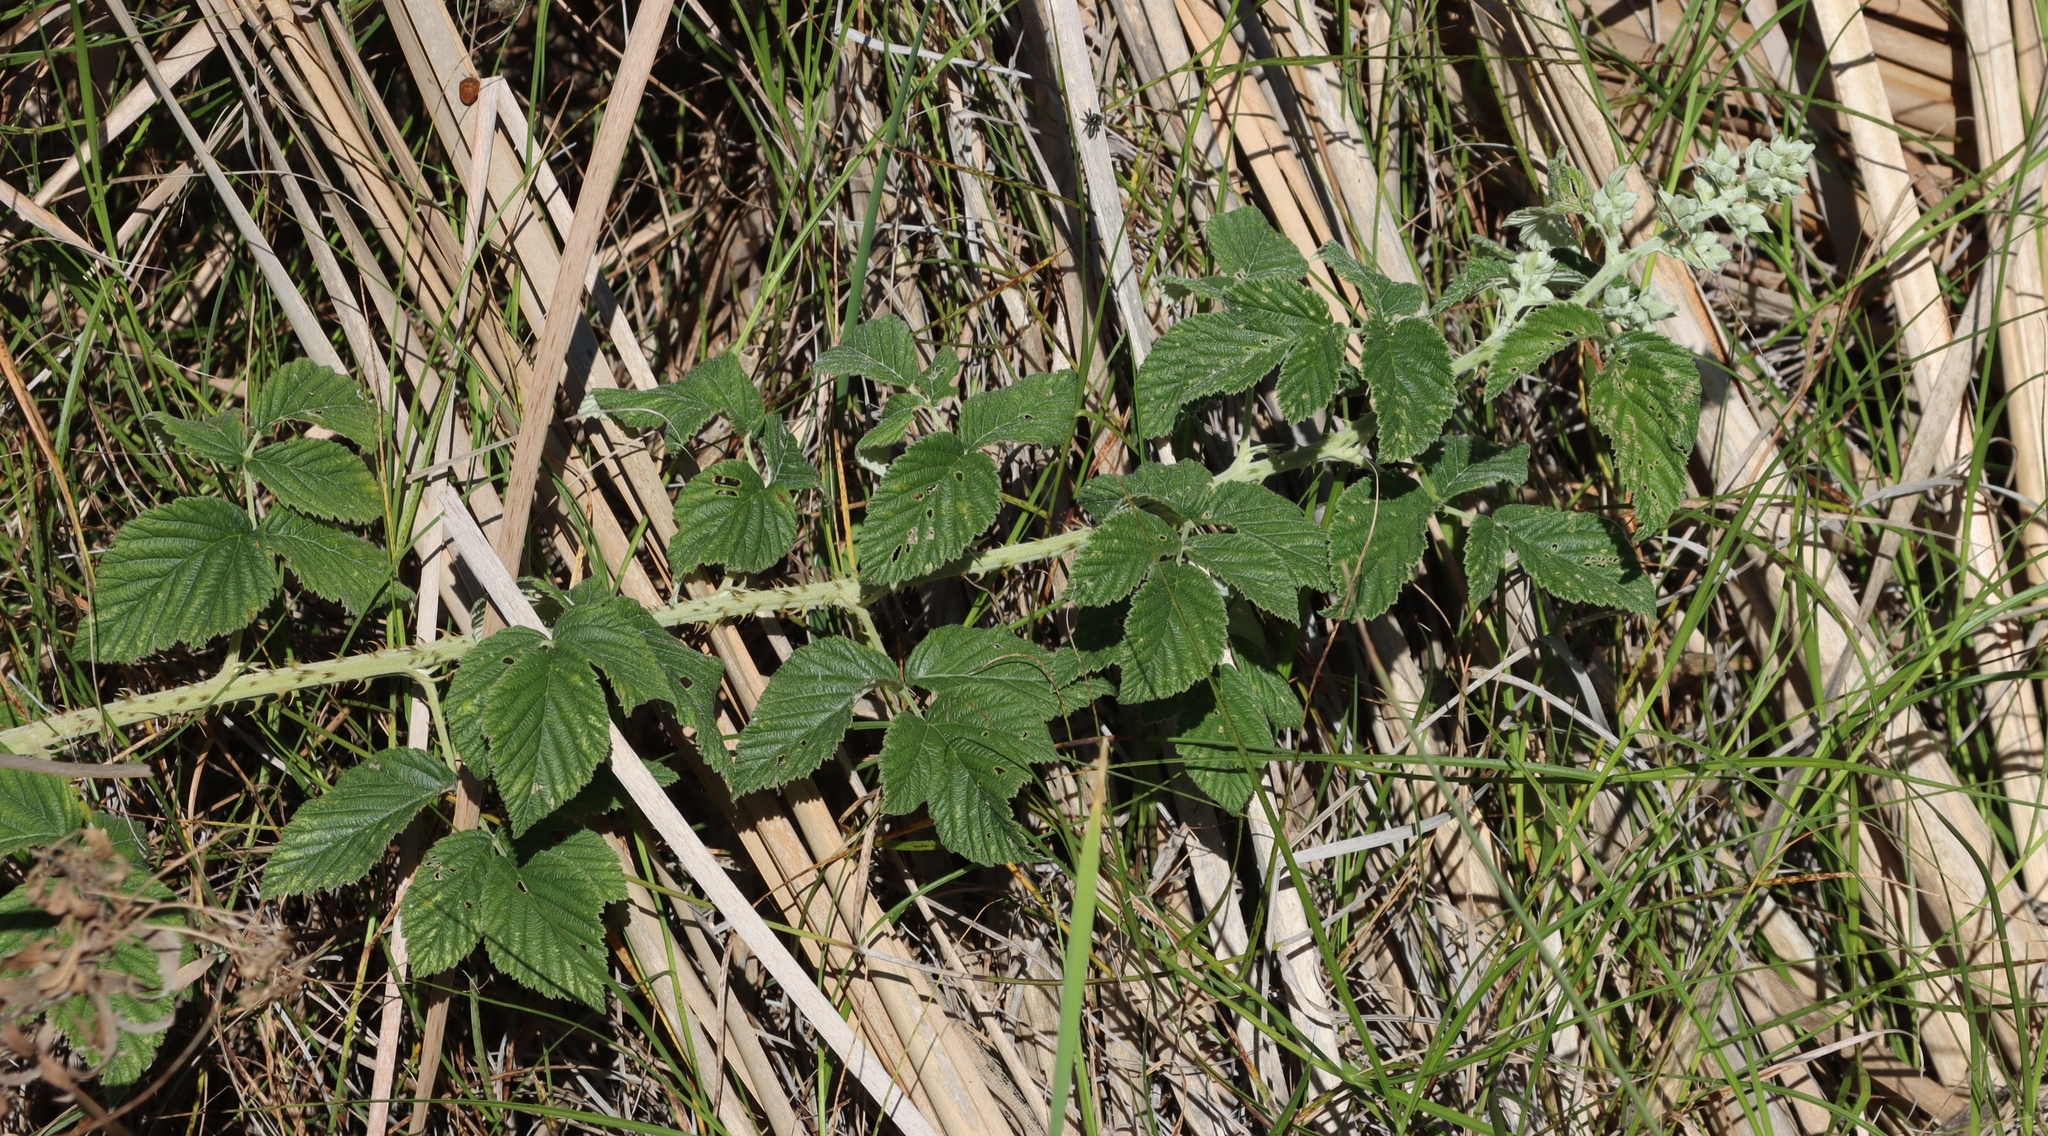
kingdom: Plantae
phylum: Tracheophyta
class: Magnoliopsida
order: Rosales
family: Rosaceae
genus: Rubus
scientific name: Rubus rigidus
